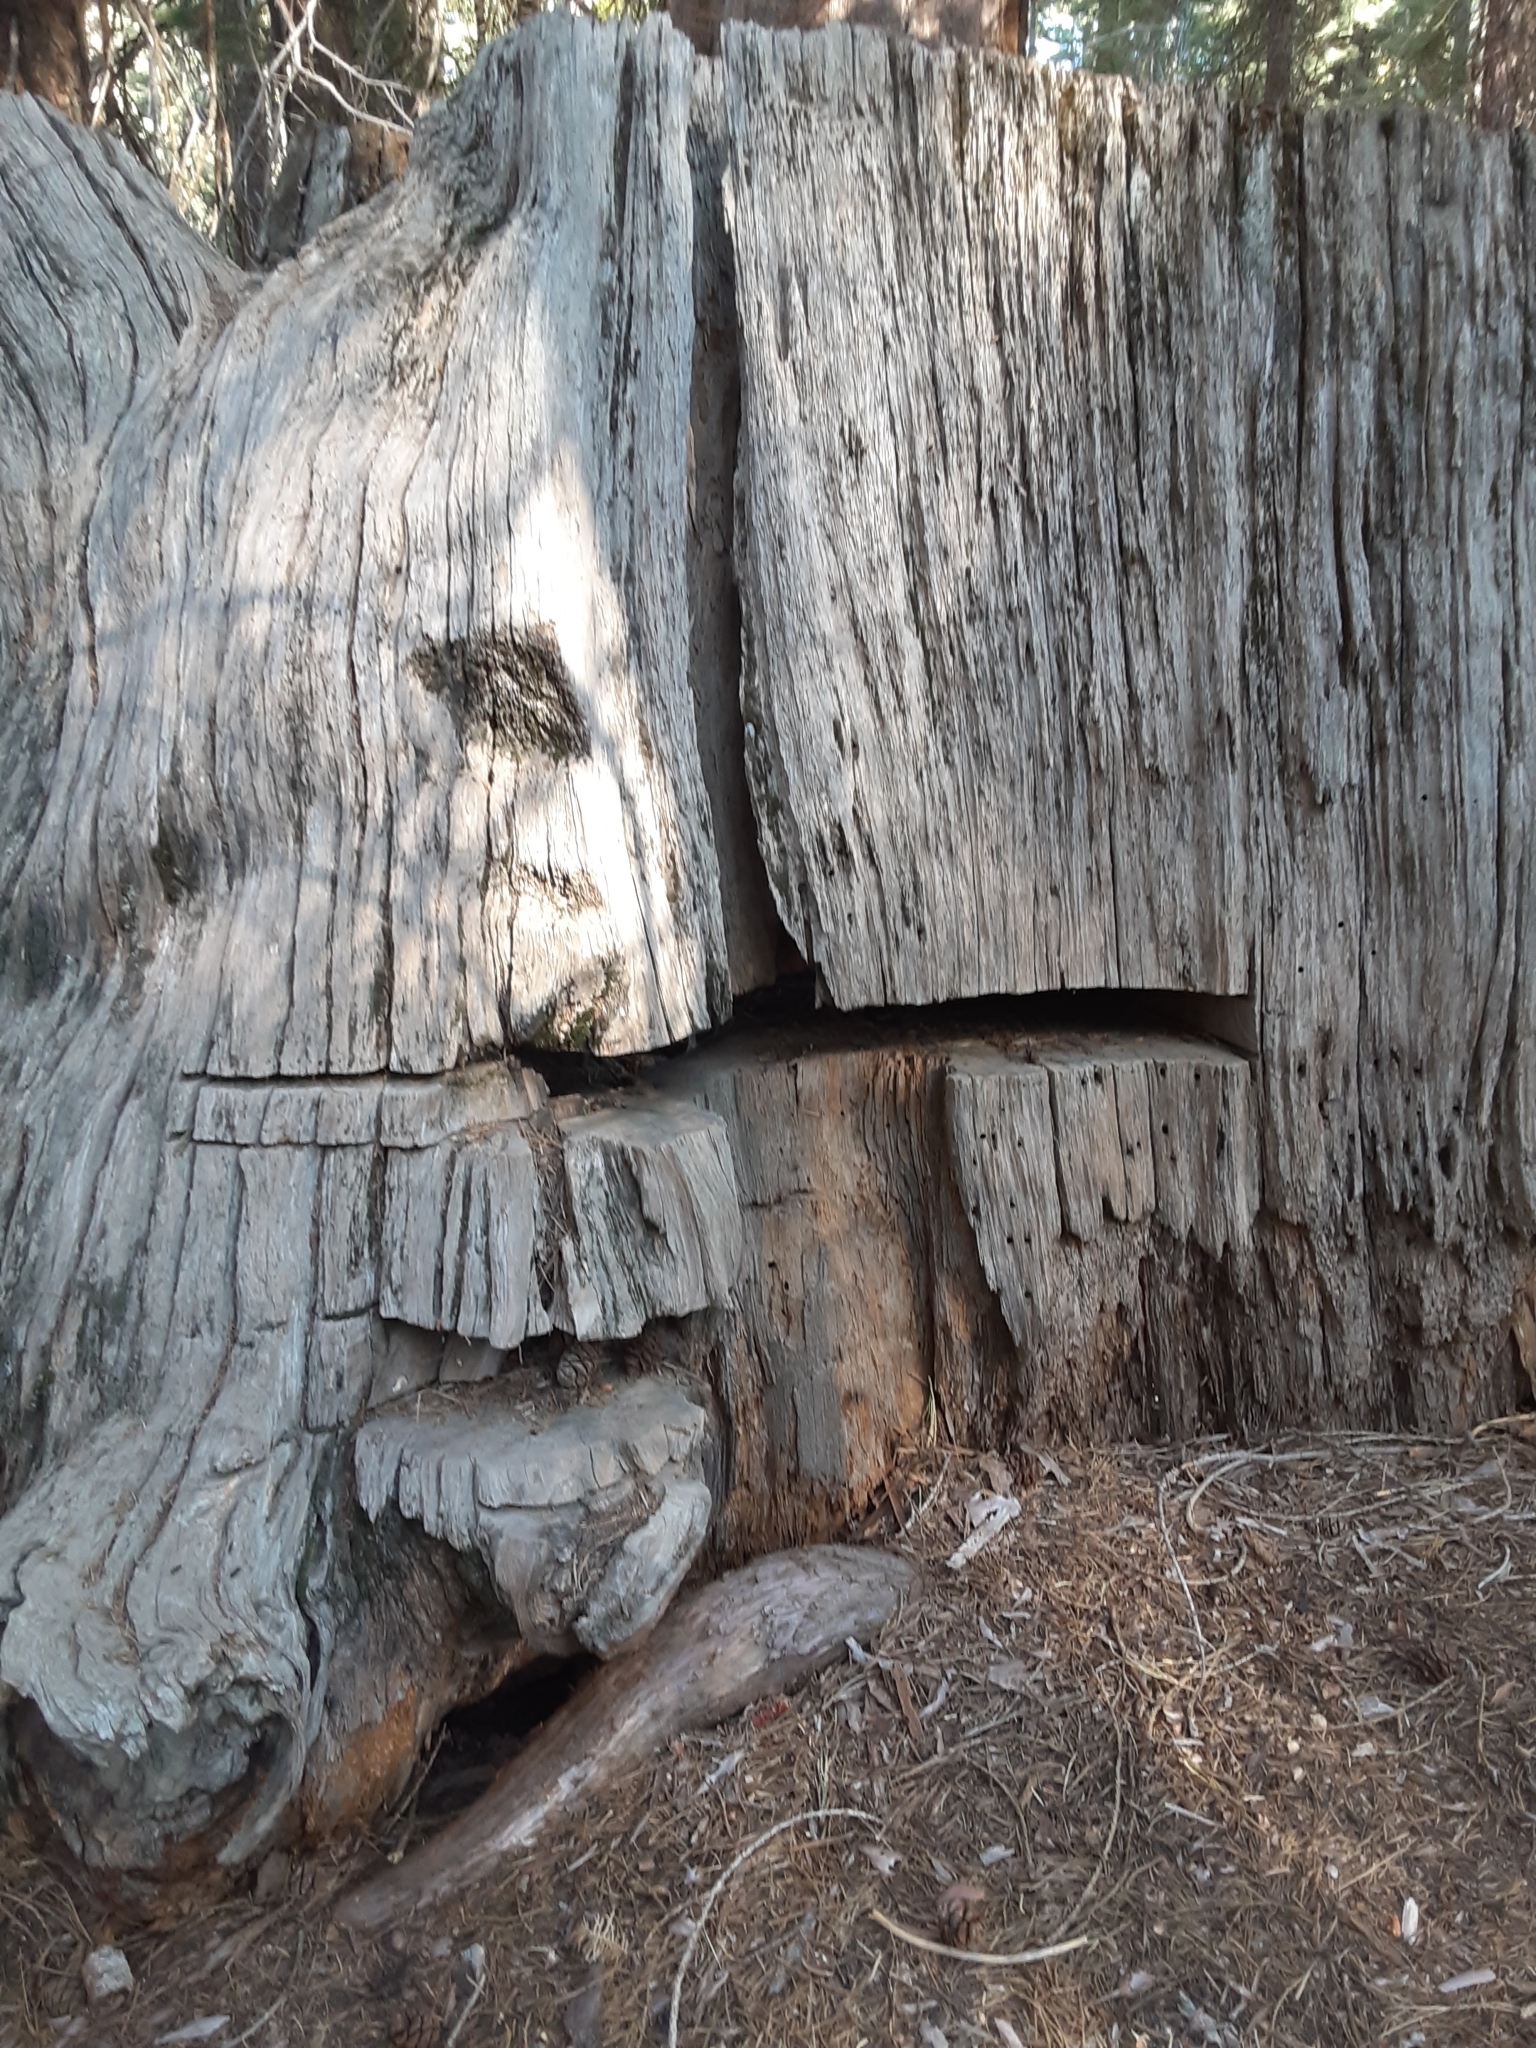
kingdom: Plantae
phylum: Tracheophyta
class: Pinopsida
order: Pinales
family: Cupressaceae
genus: Sequoiadendron
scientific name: Sequoiadendron giganteum
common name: Wellingtonia
